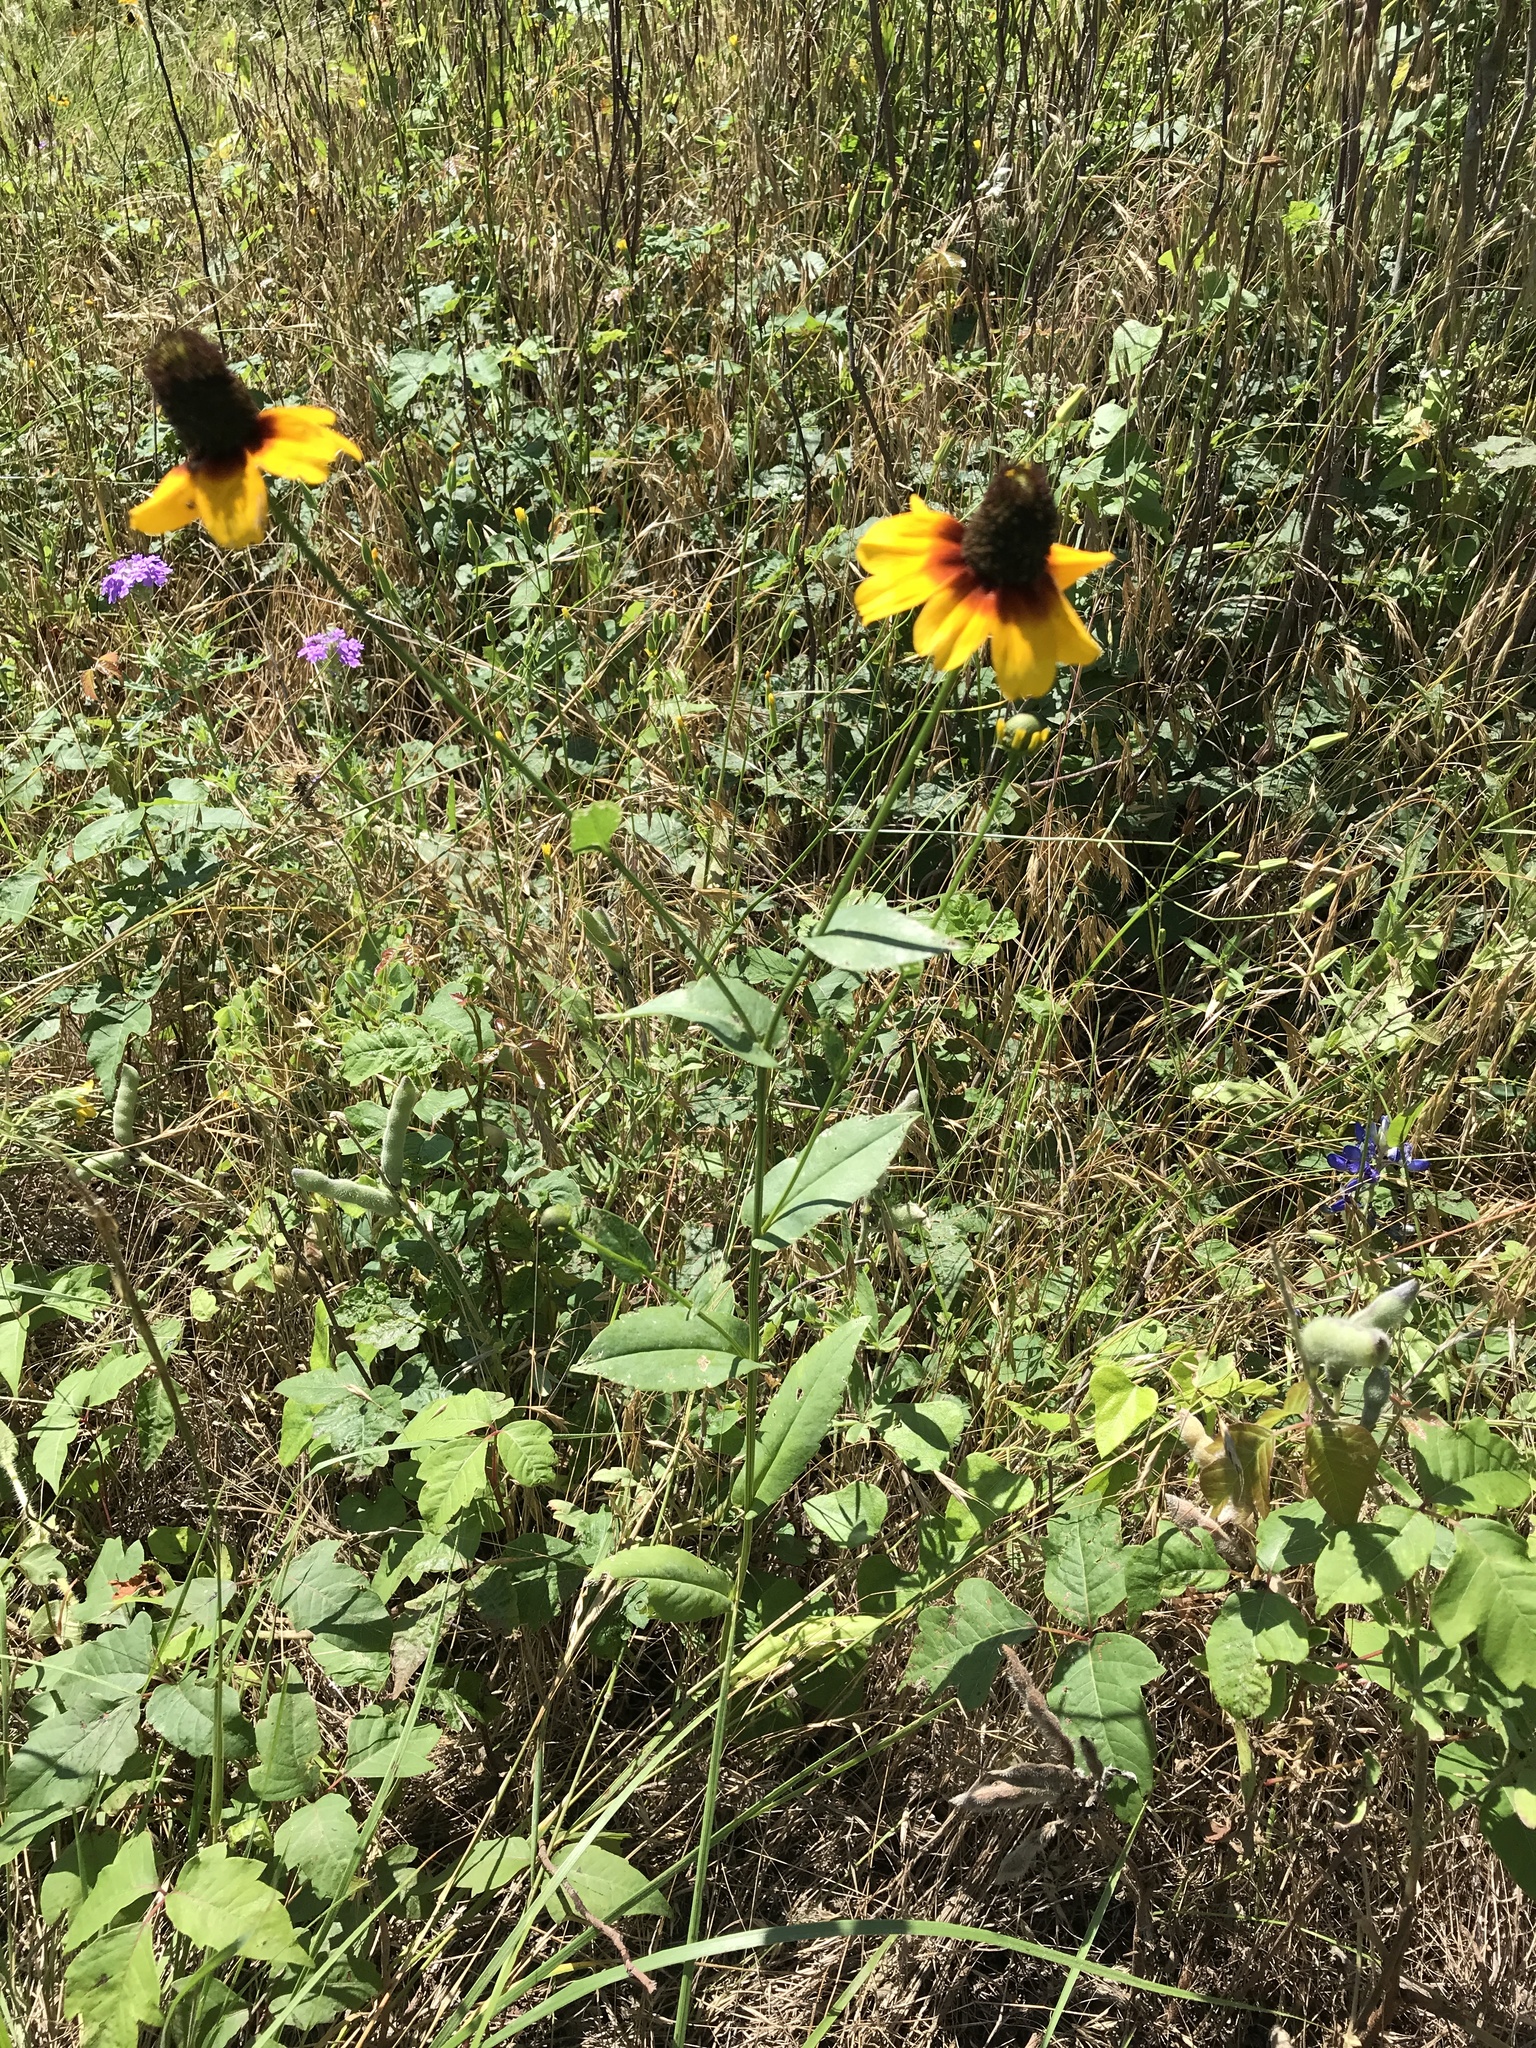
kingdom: Plantae
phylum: Tracheophyta
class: Magnoliopsida
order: Asterales
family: Asteraceae
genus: Rudbeckia
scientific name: Rudbeckia amplexicaulis
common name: Clasping-leaf coneflower
